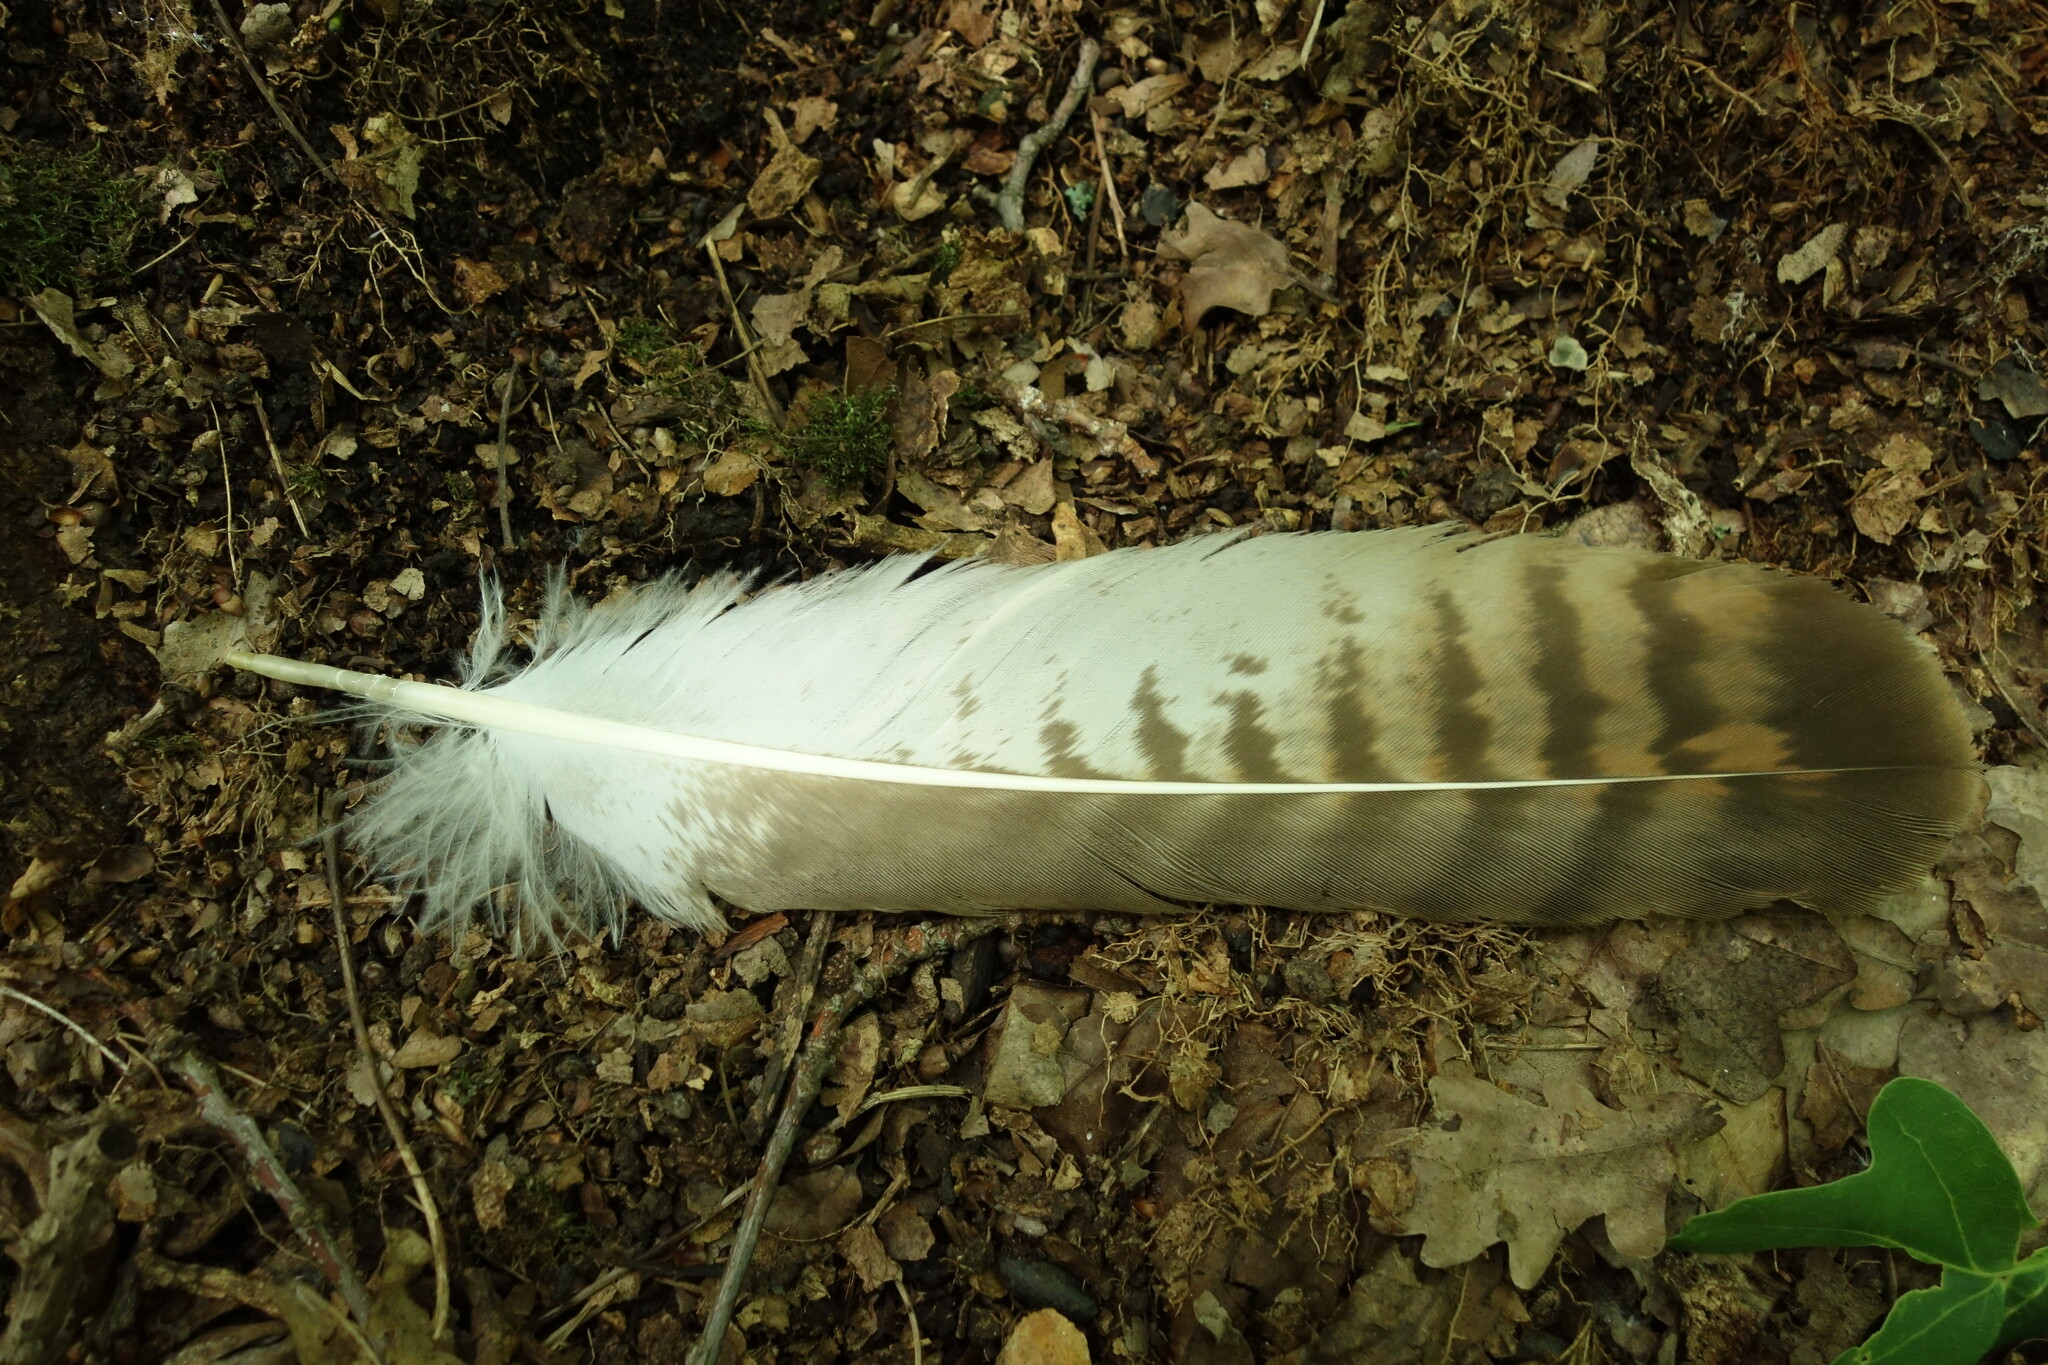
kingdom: Animalia
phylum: Chordata
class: Aves
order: Accipitriformes
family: Accipitridae
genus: Buteo
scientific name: Buteo buteo
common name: Common buzzard
